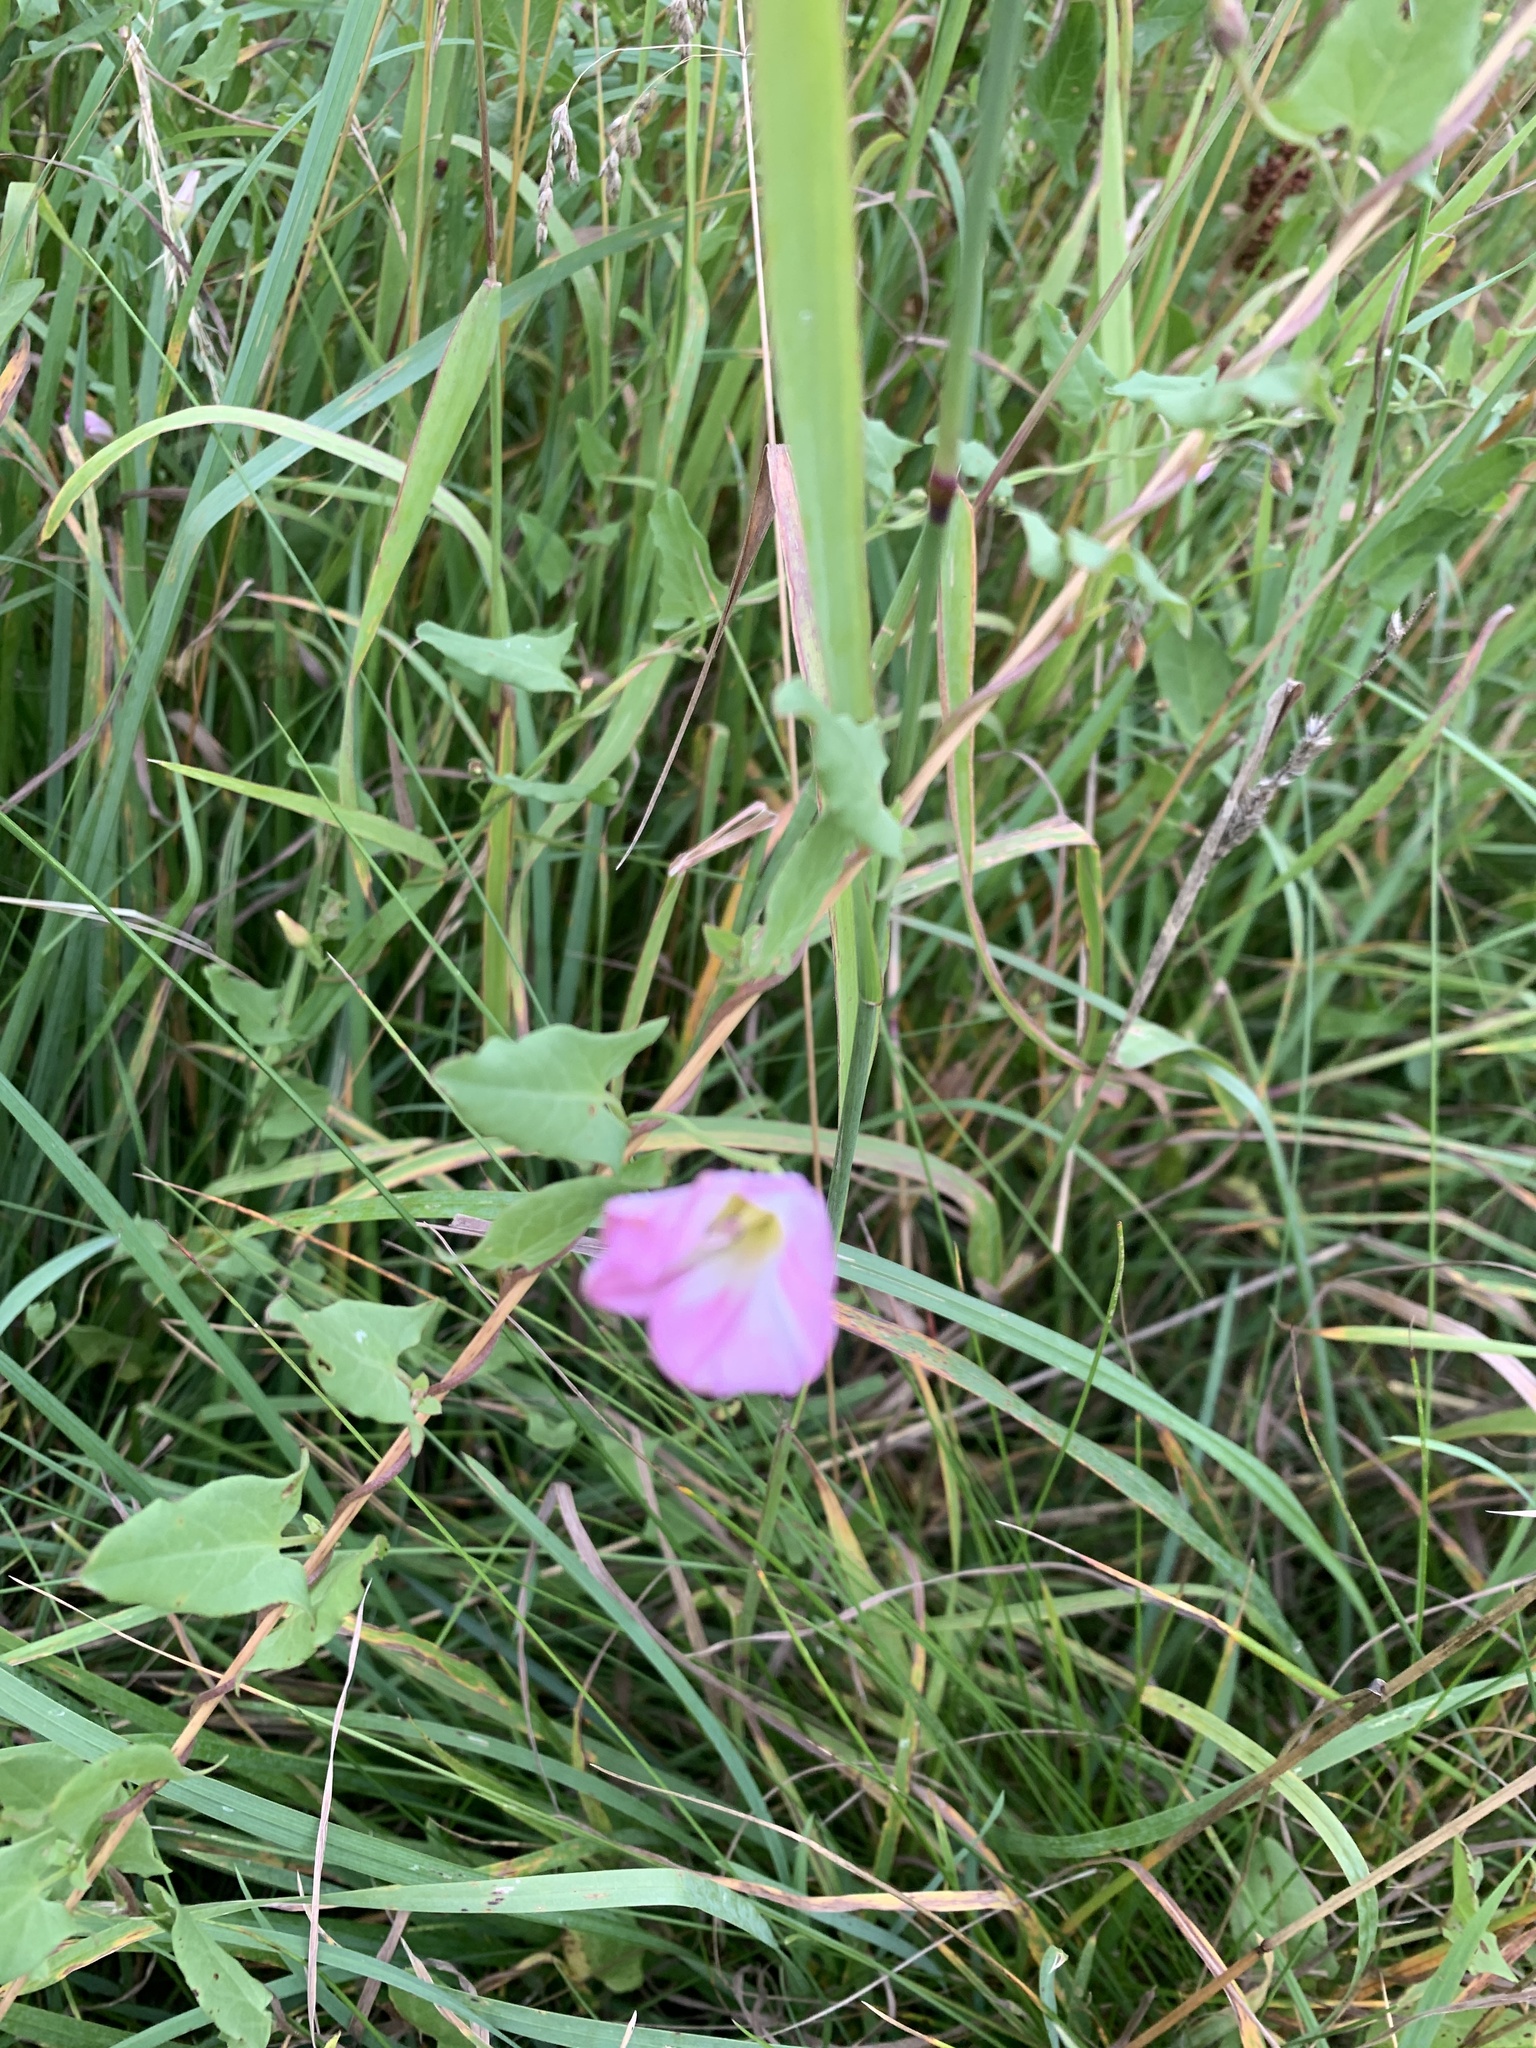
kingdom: Plantae
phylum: Tracheophyta
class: Magnoliopsida
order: Solanales
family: Convolvulaceae
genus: Convolvulus
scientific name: Convolvulus arvensis
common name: Field bindweed
